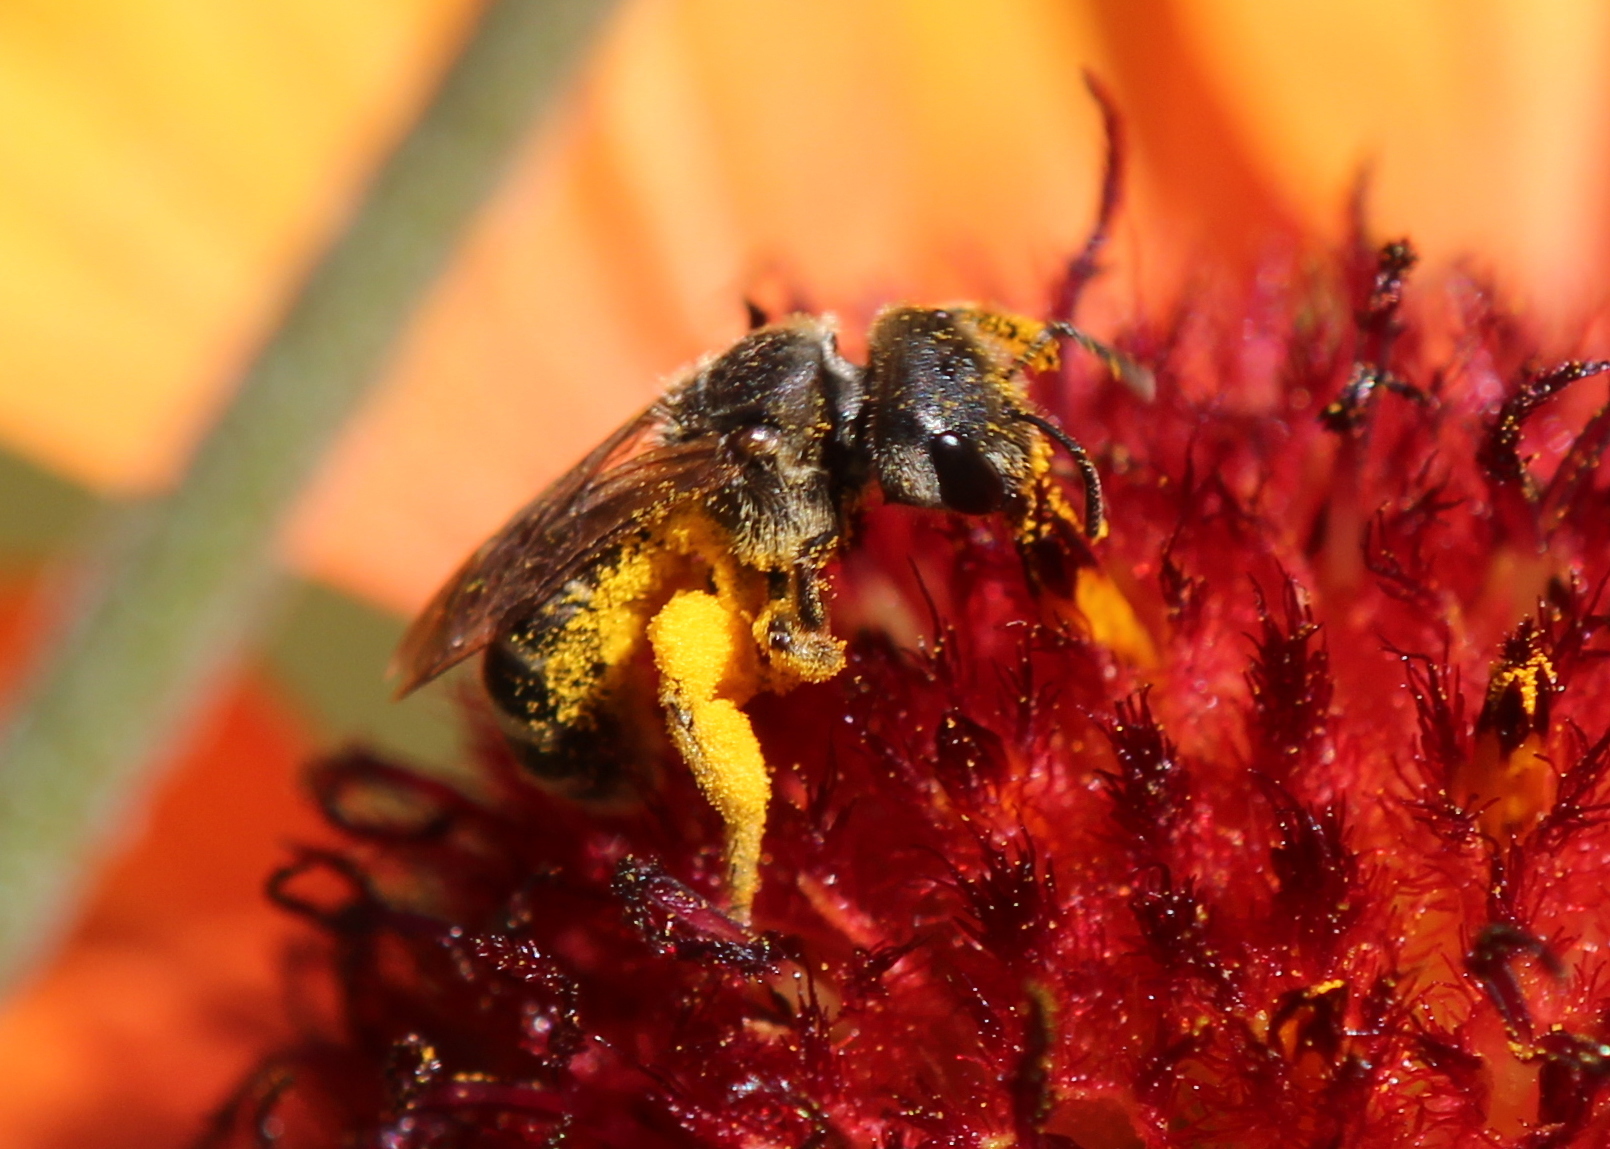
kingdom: Animalia
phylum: Arthropoda
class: Insecta
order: Hymenoptera
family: Halictidae
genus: Halictus
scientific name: Halictus ligatus
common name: Ligated furrow bee
